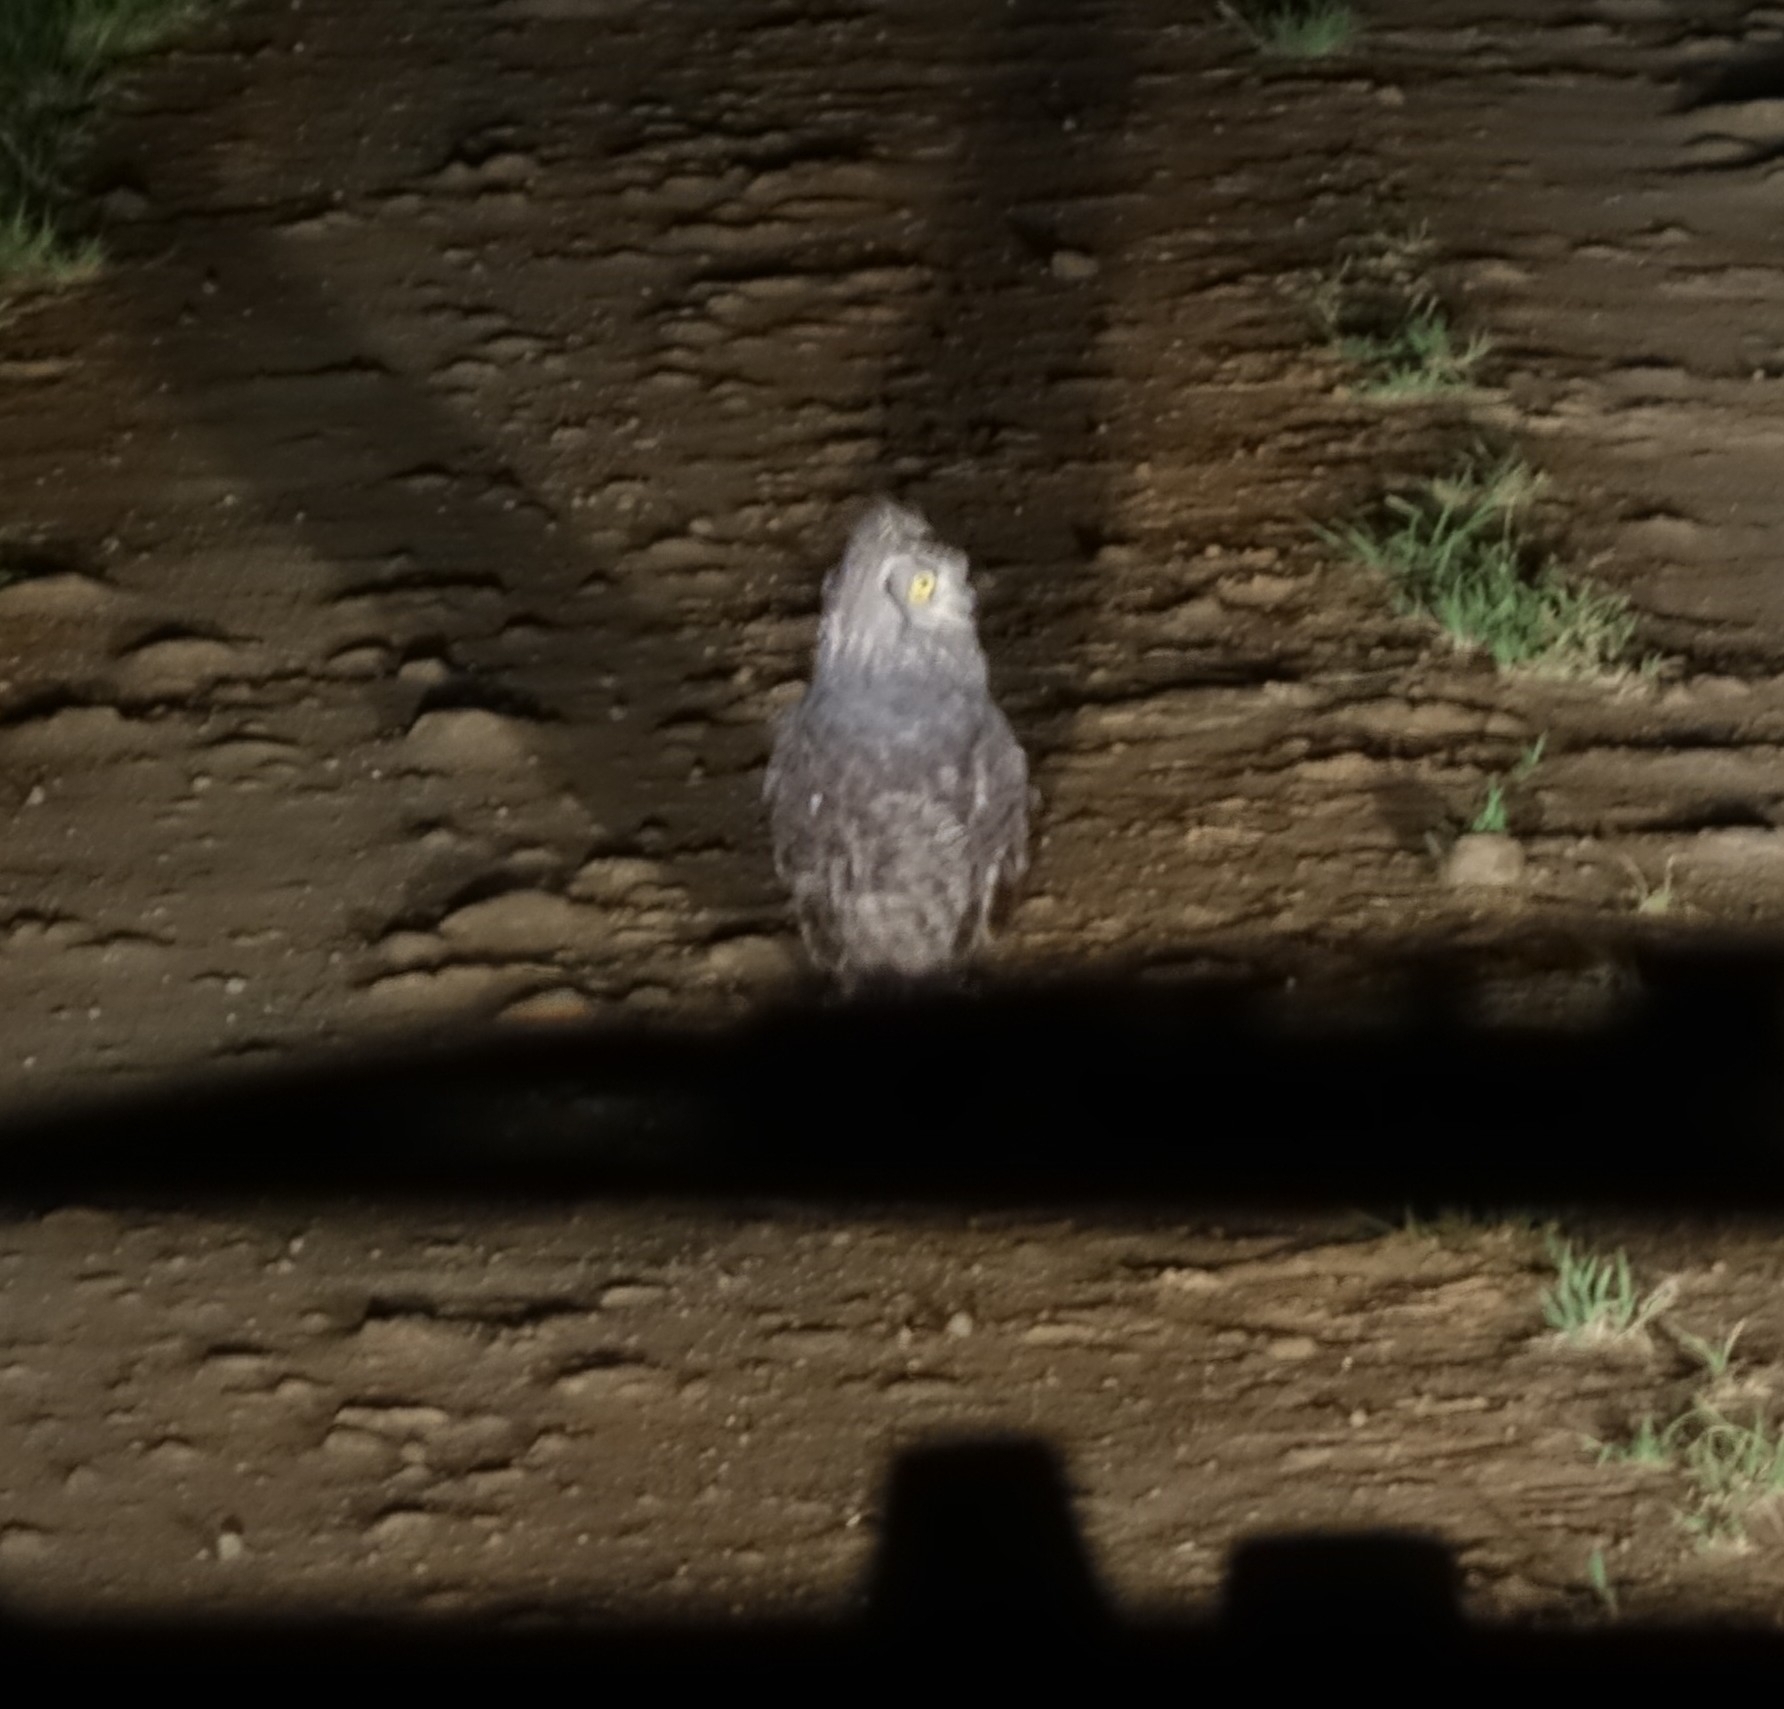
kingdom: Animalia
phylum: Chordata
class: Aves
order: Strigiformes
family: Strigidae
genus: Bubo
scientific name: Bubo africanus
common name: Spotted eagle-owl
